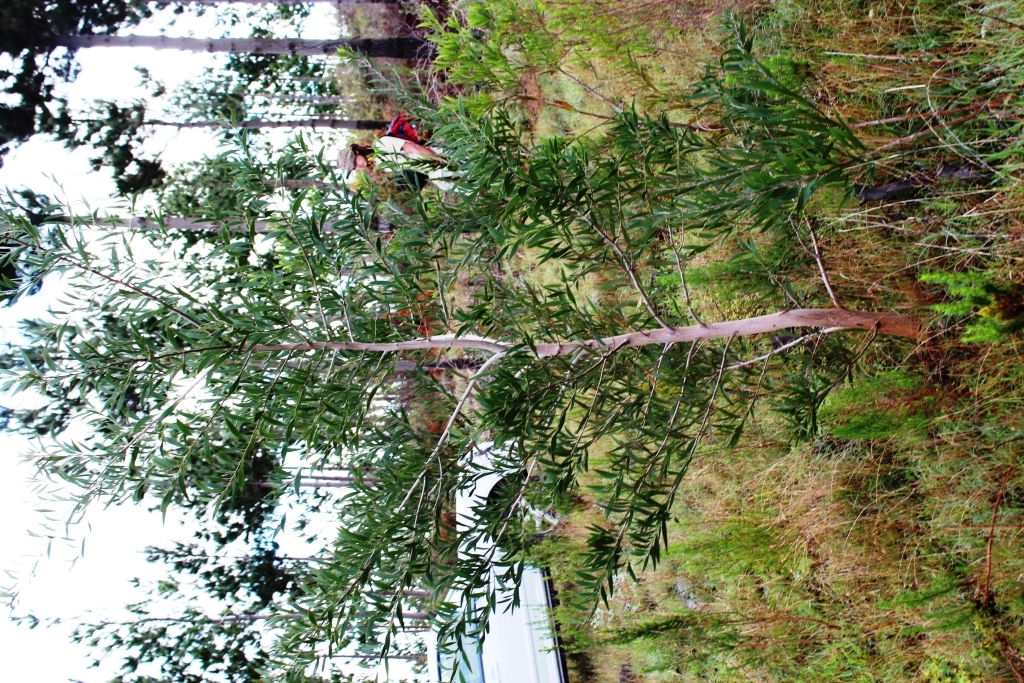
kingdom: Plantae
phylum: Tracheophyta
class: Magnoliopsida
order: Fabales
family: Fabaceae
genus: Acacia
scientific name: Acacia melanoxylon
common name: Blackwood
